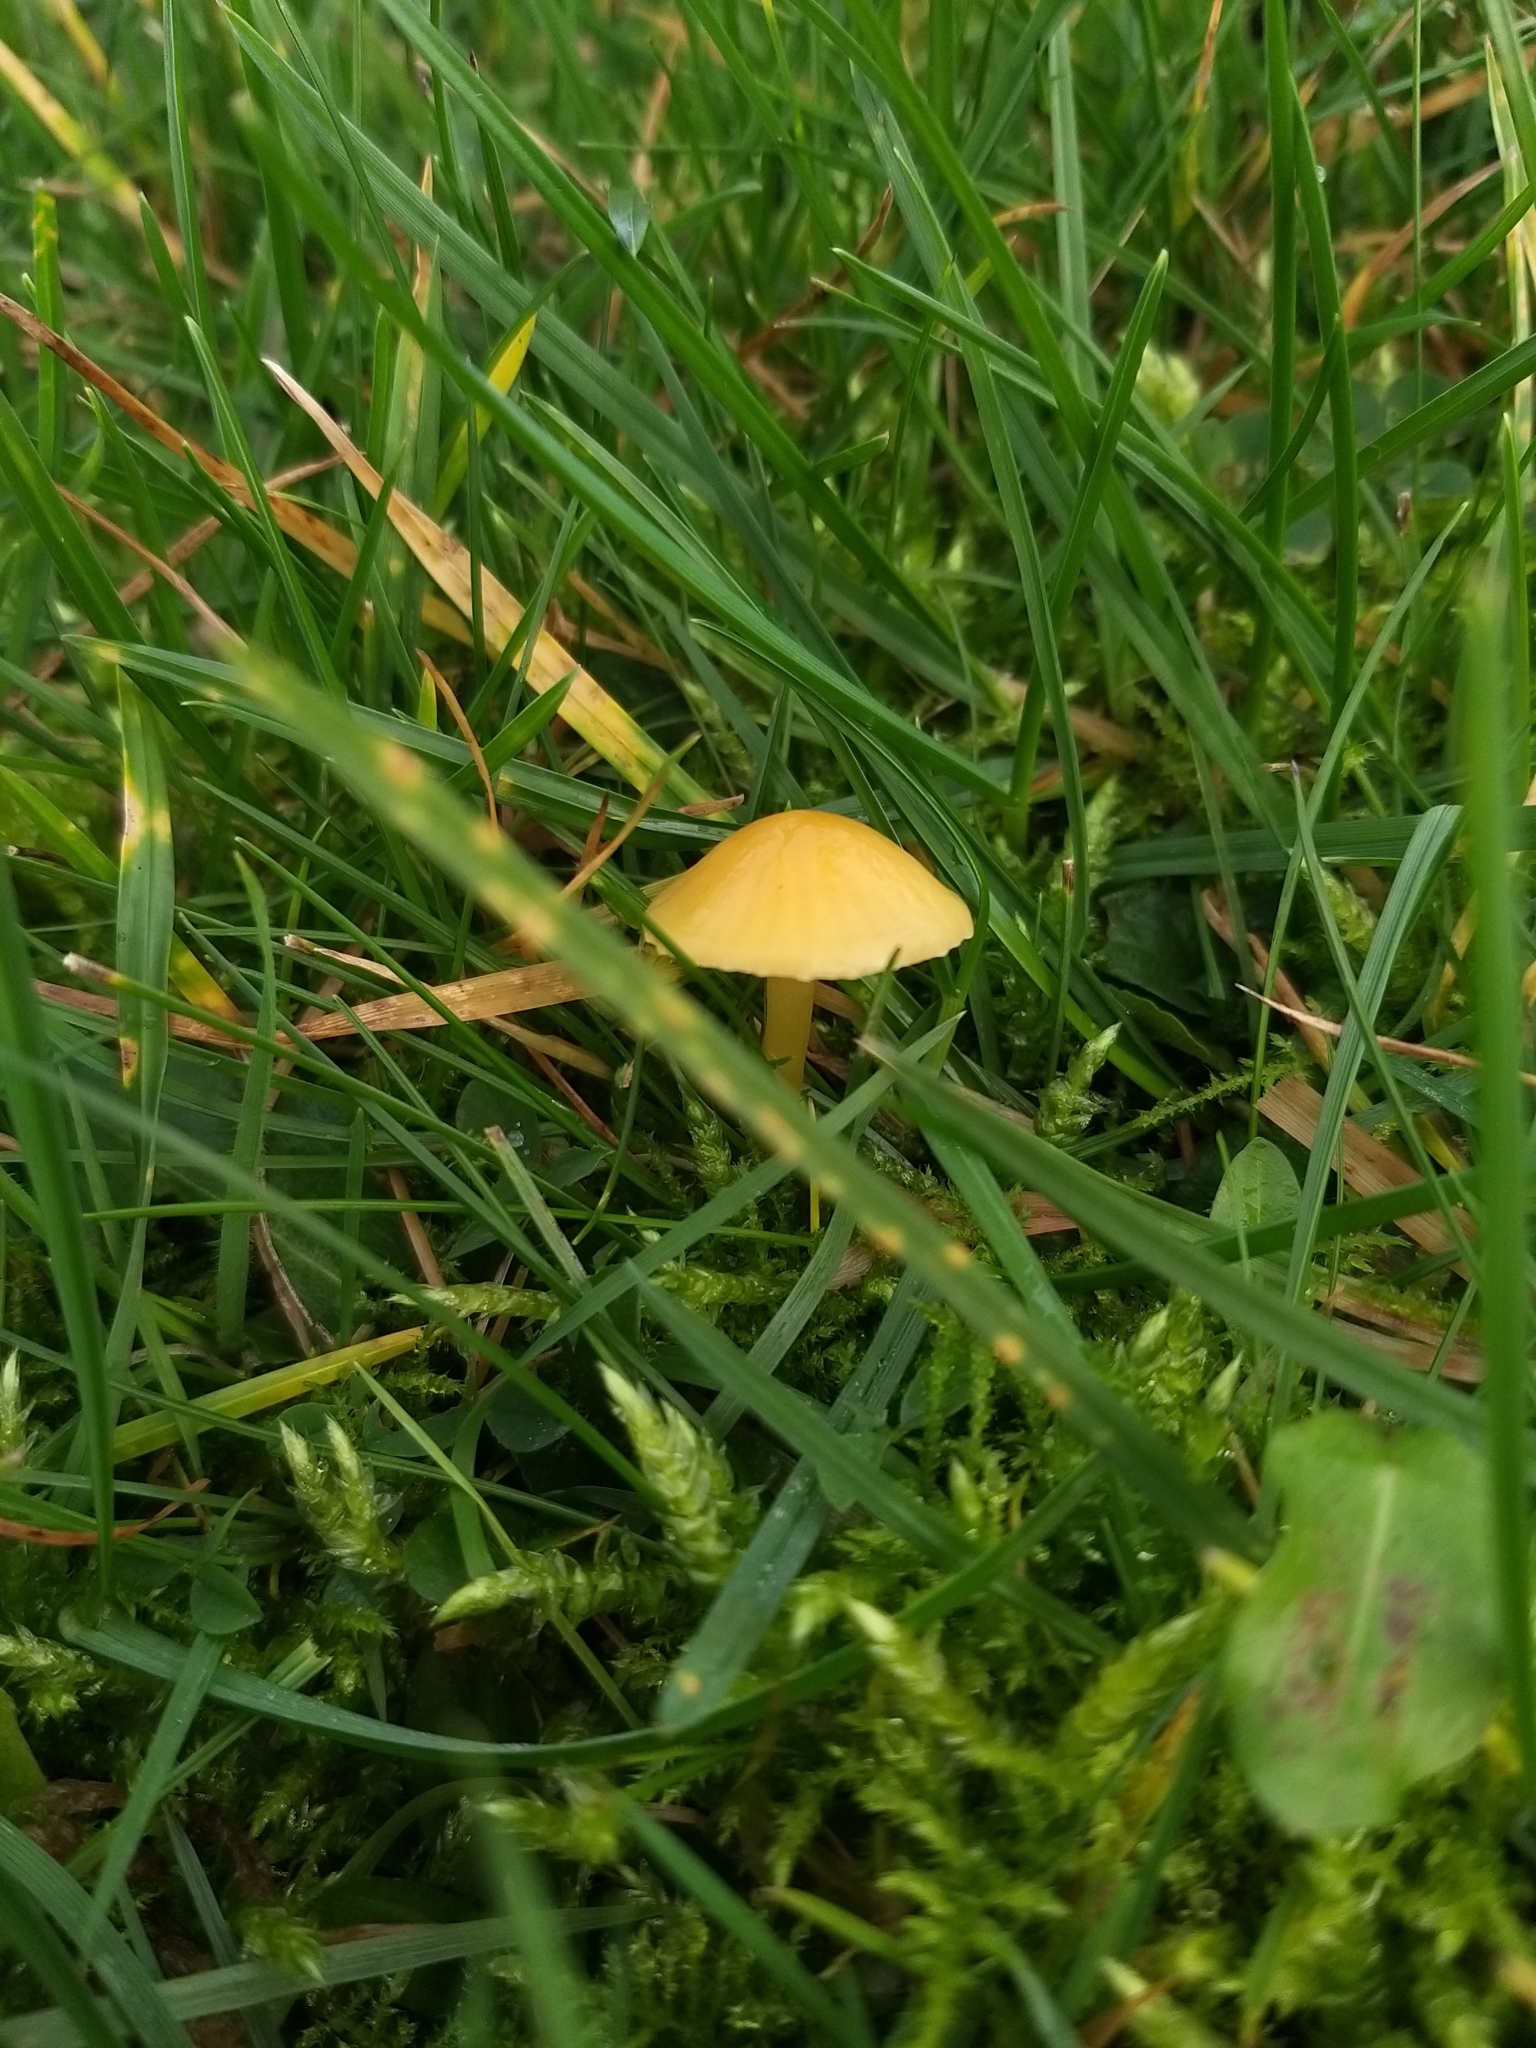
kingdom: Fungi
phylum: Basidiomycota
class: Agaricomycetes
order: Agaricales
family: Hygrophoraceae
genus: Gliophorus
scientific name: Gliophorus psittacinus
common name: Parrot wax-cap
